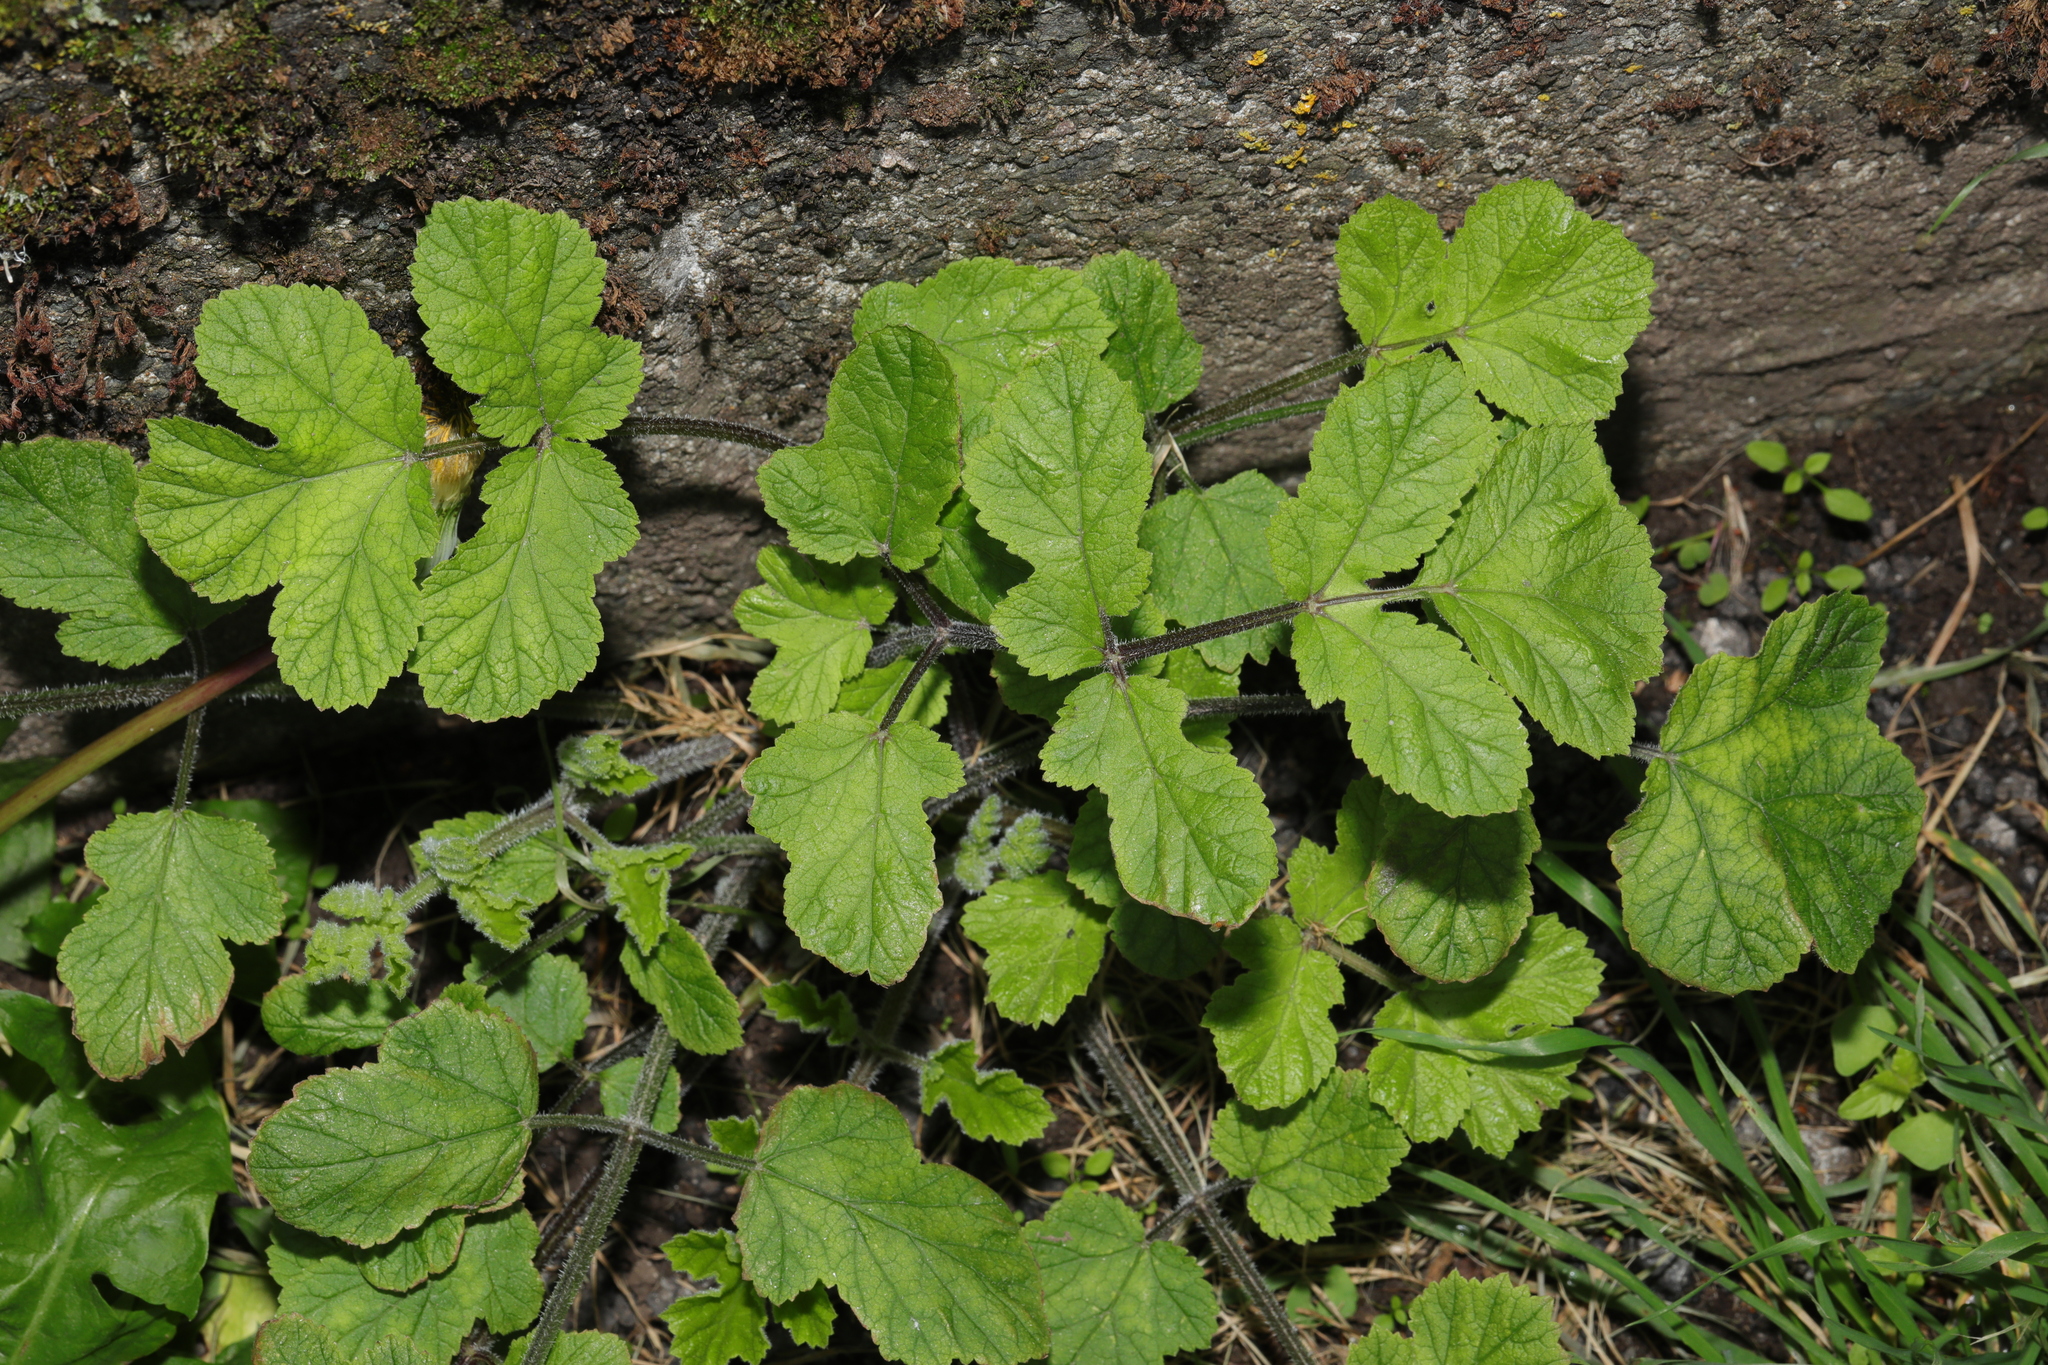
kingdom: Plantae
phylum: Tracheophyta
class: Magnoliopsida
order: Apiales
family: Apiaceae
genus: Heracleum
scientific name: Heracleum sphondylium
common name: Hogweed
